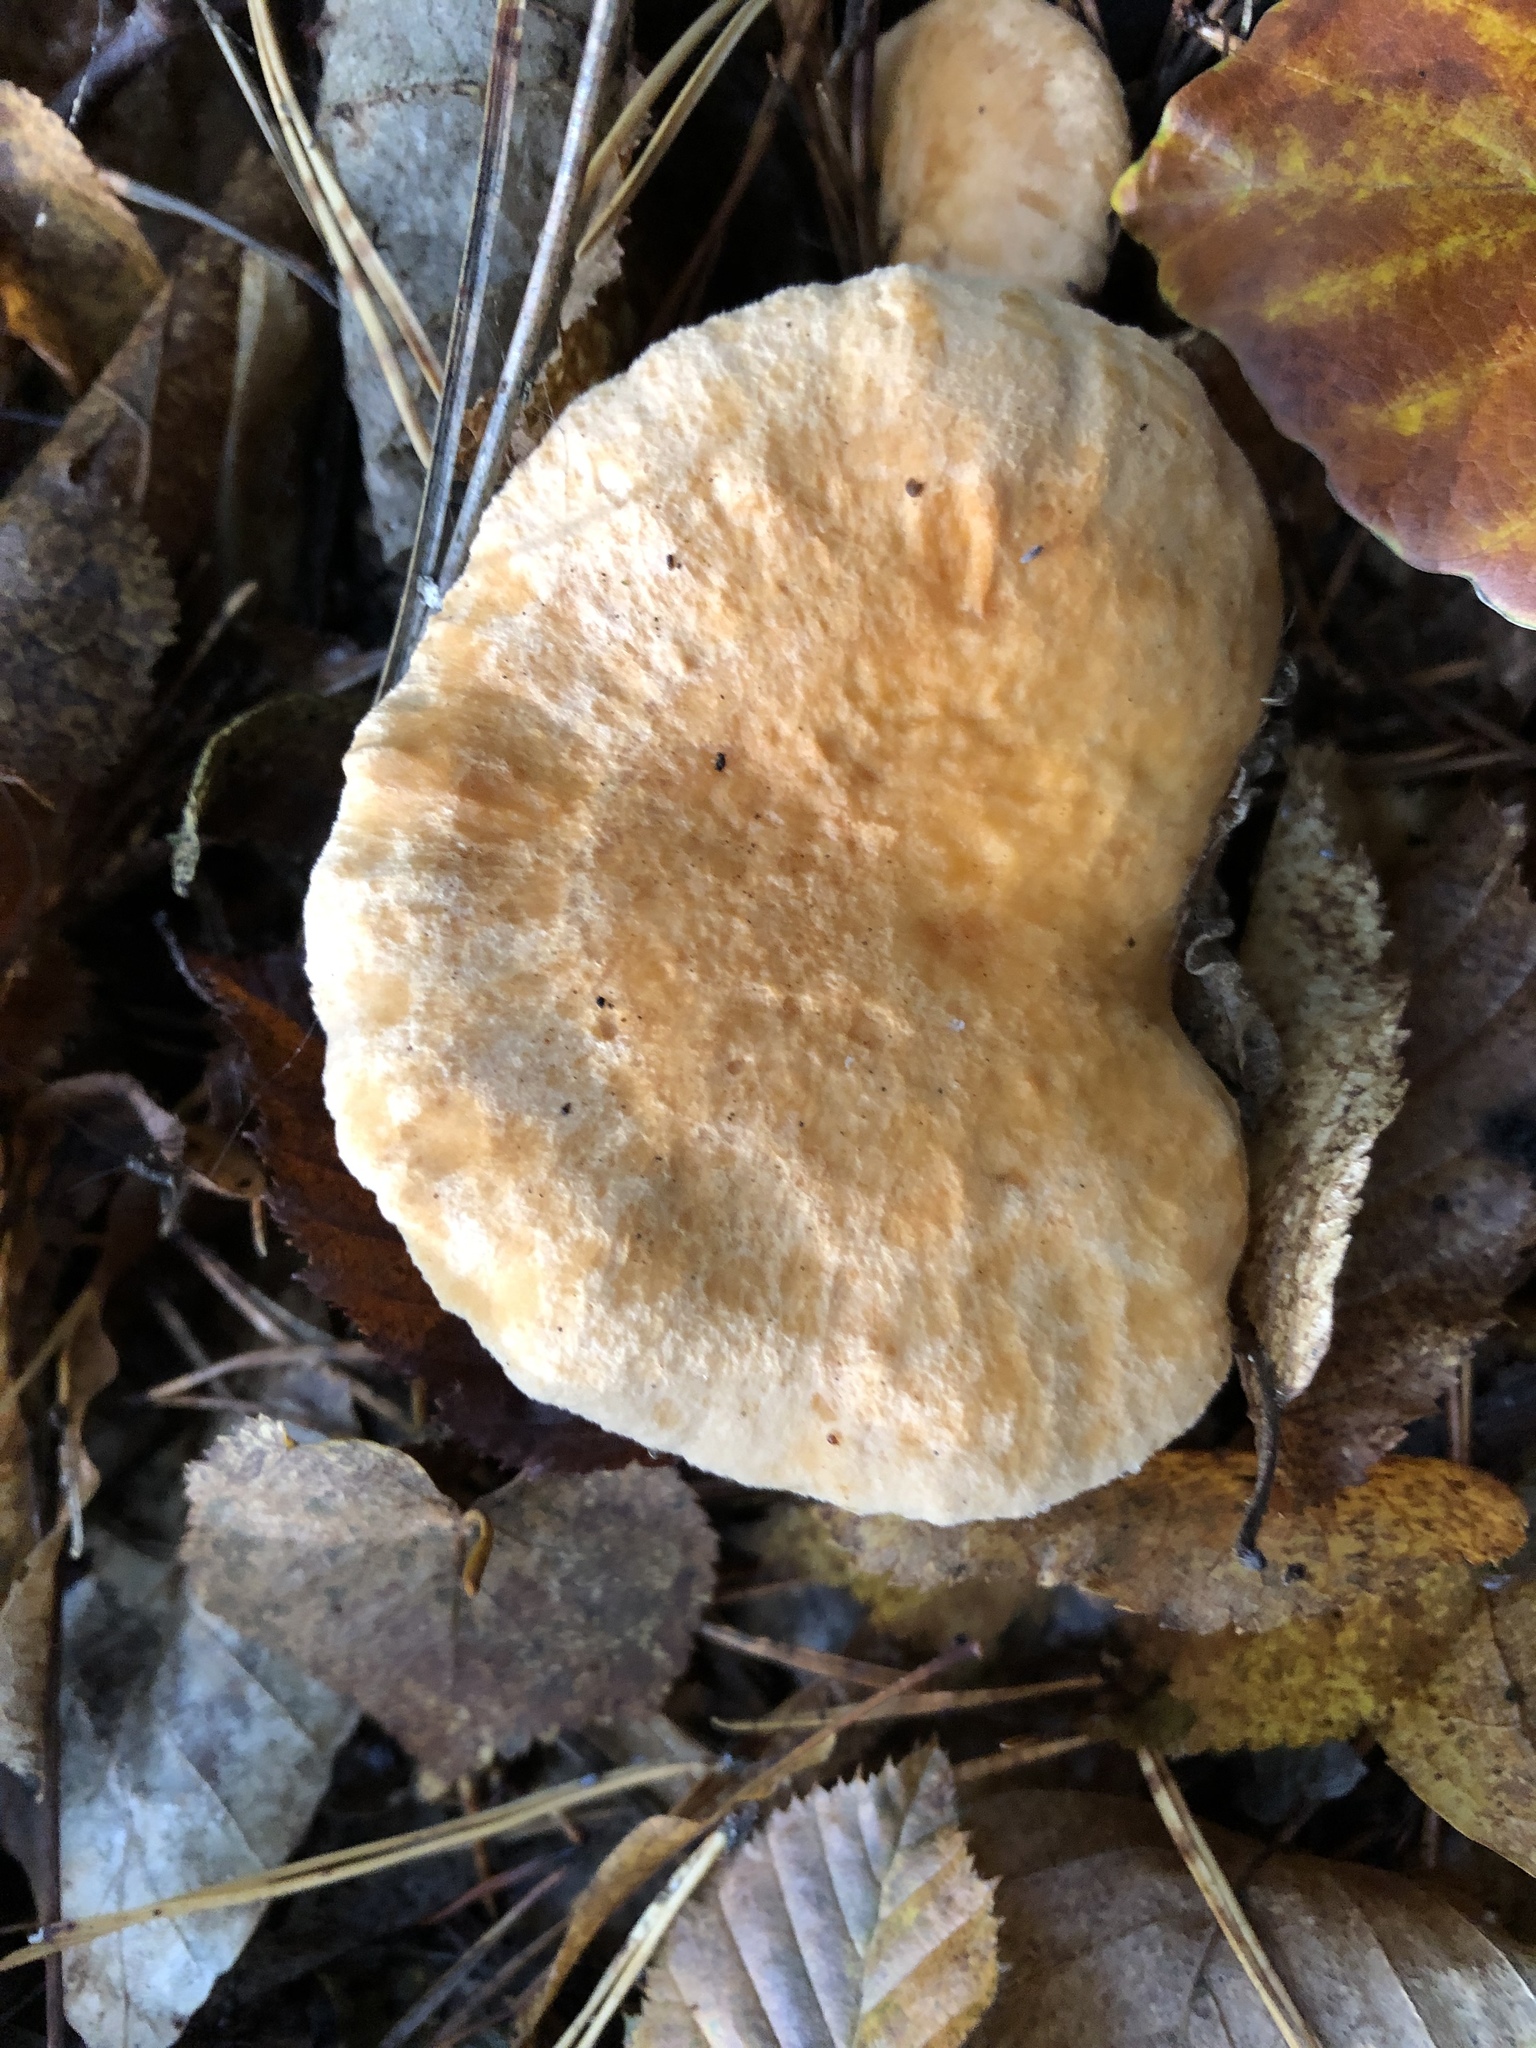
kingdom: Fungi
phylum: Basidiomycota
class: Agaricomycetes
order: Cantharellales
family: Hydnaceae
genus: Hydnum
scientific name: Hydnum repandum
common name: Wood hedgehog
